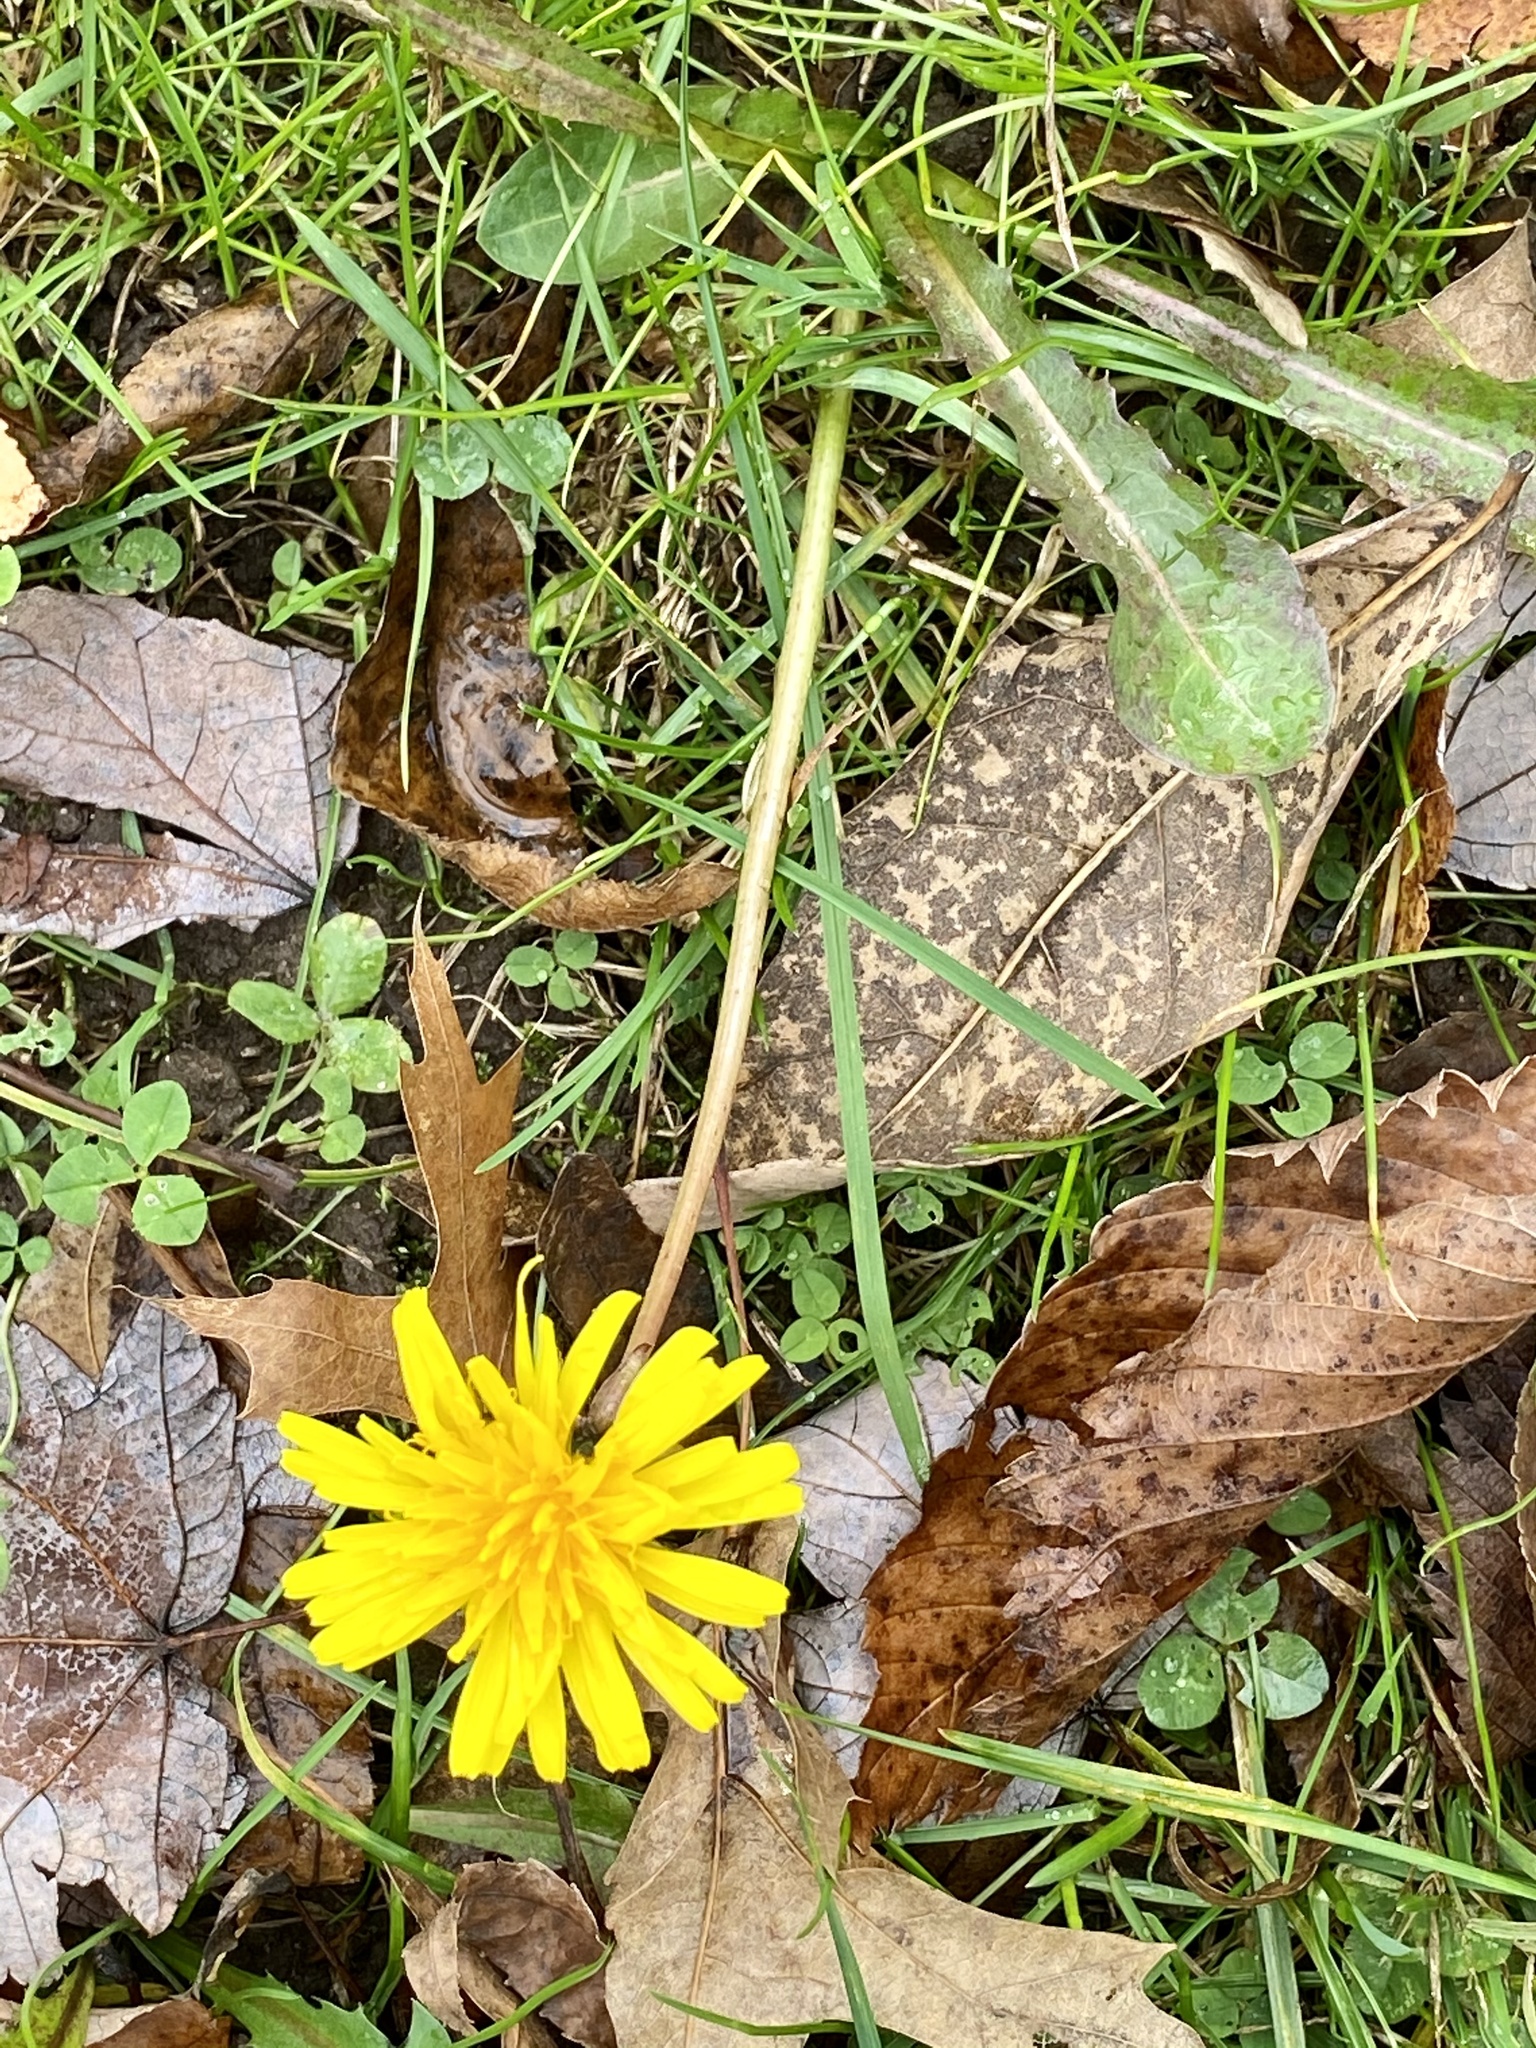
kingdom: Plantae
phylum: Tracheophyta
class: Magnoliopsida
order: Asterales
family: Asteraceae
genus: Taraxacum
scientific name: Taraxacum officinale
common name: Common dandelion
